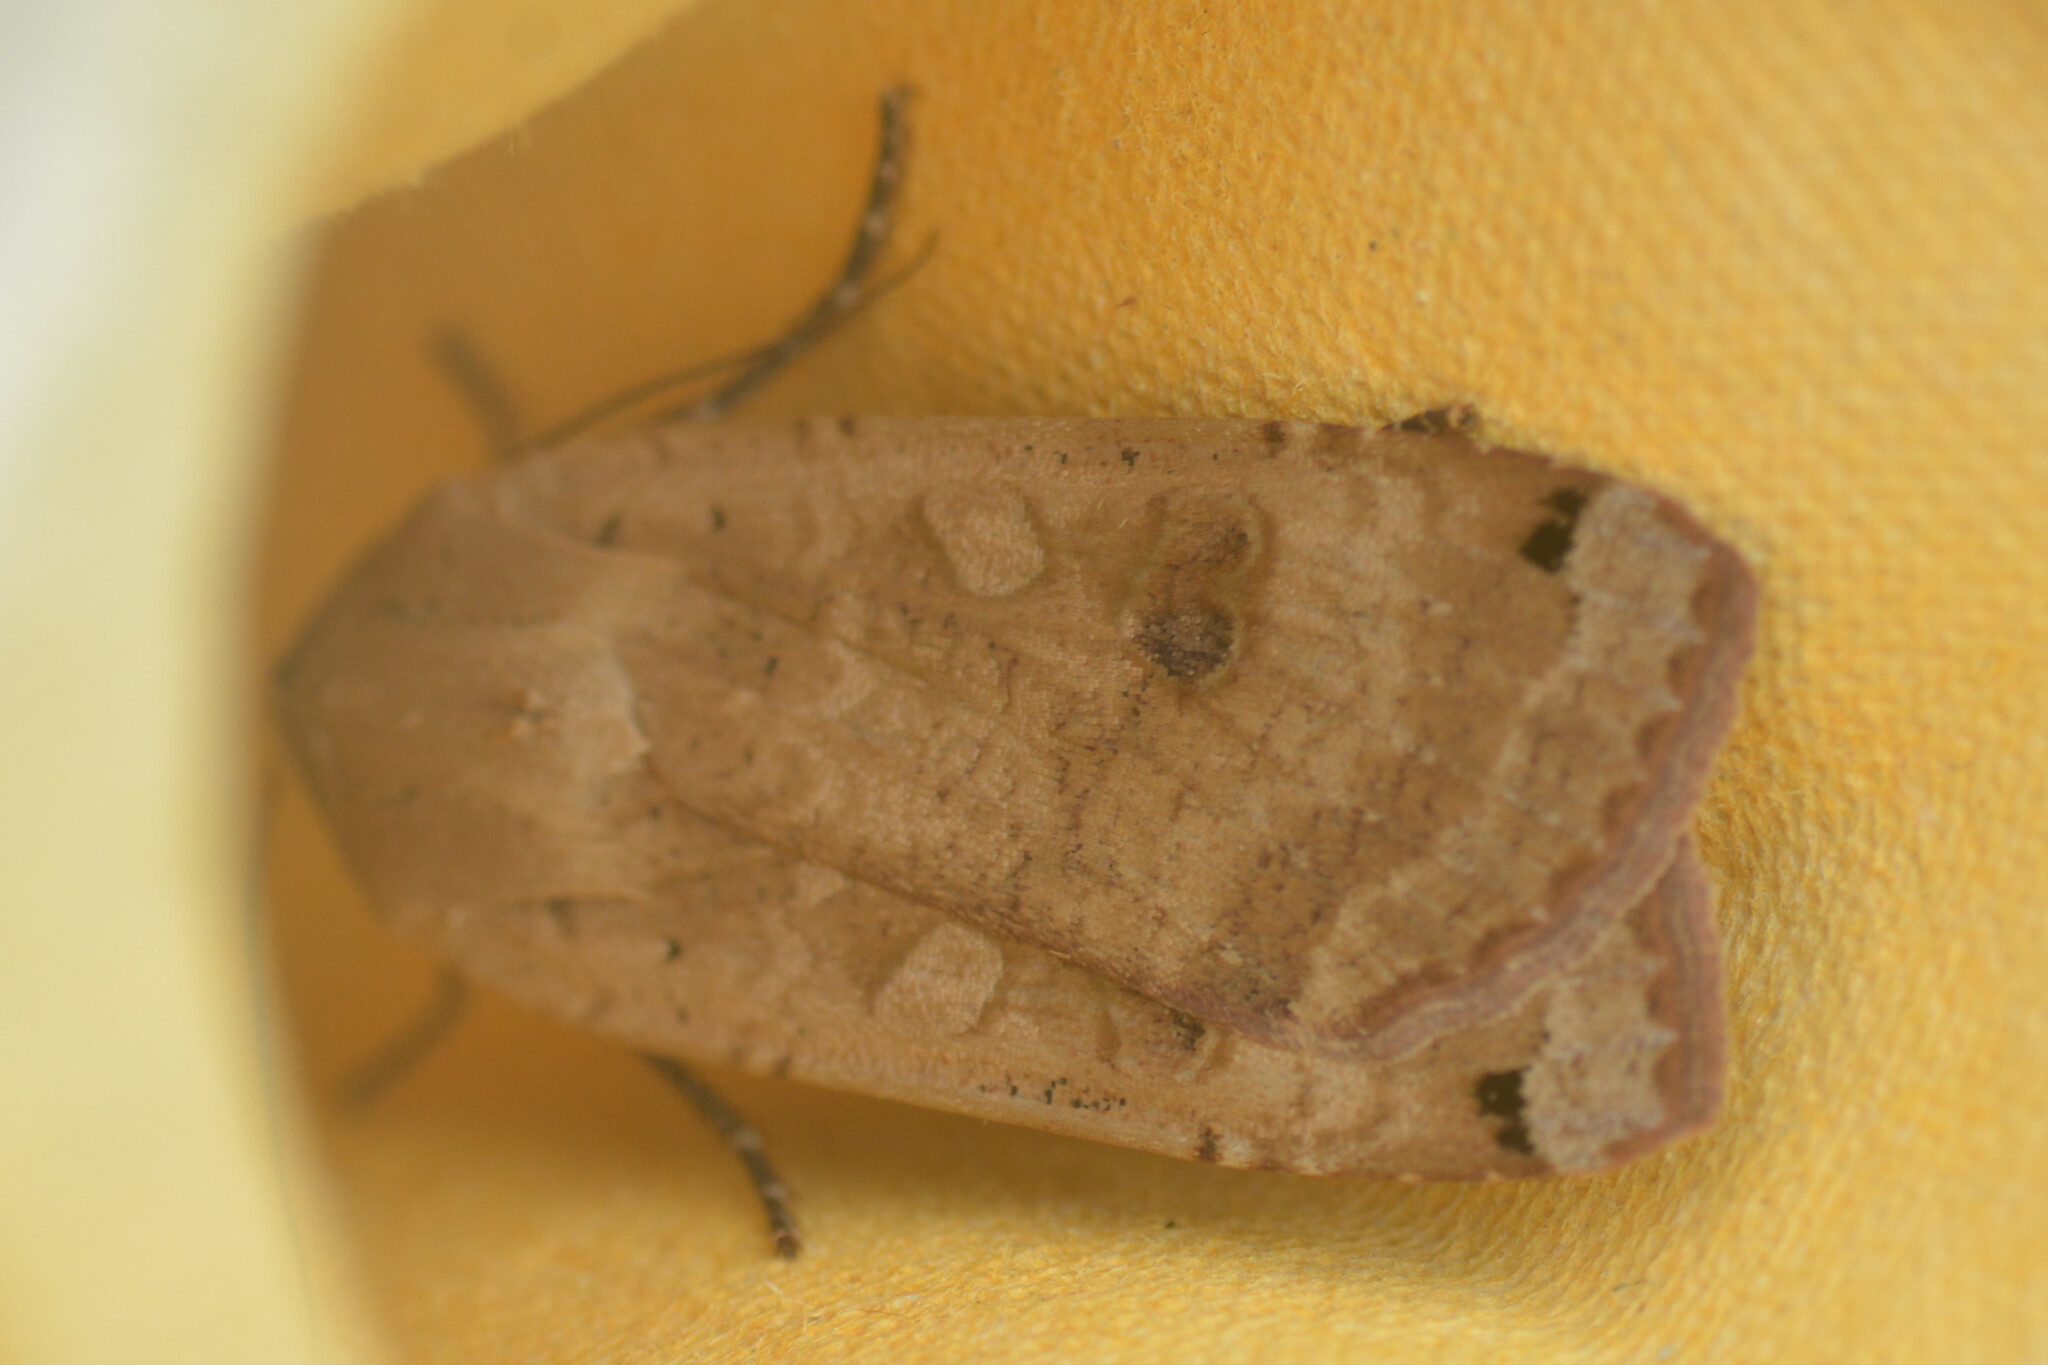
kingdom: Animalia
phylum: Arthropoda
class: Insecta
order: Lepidoptera
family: Noctuidae
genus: Noctua
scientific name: Noctua pronuba
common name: Large yellow underwing
